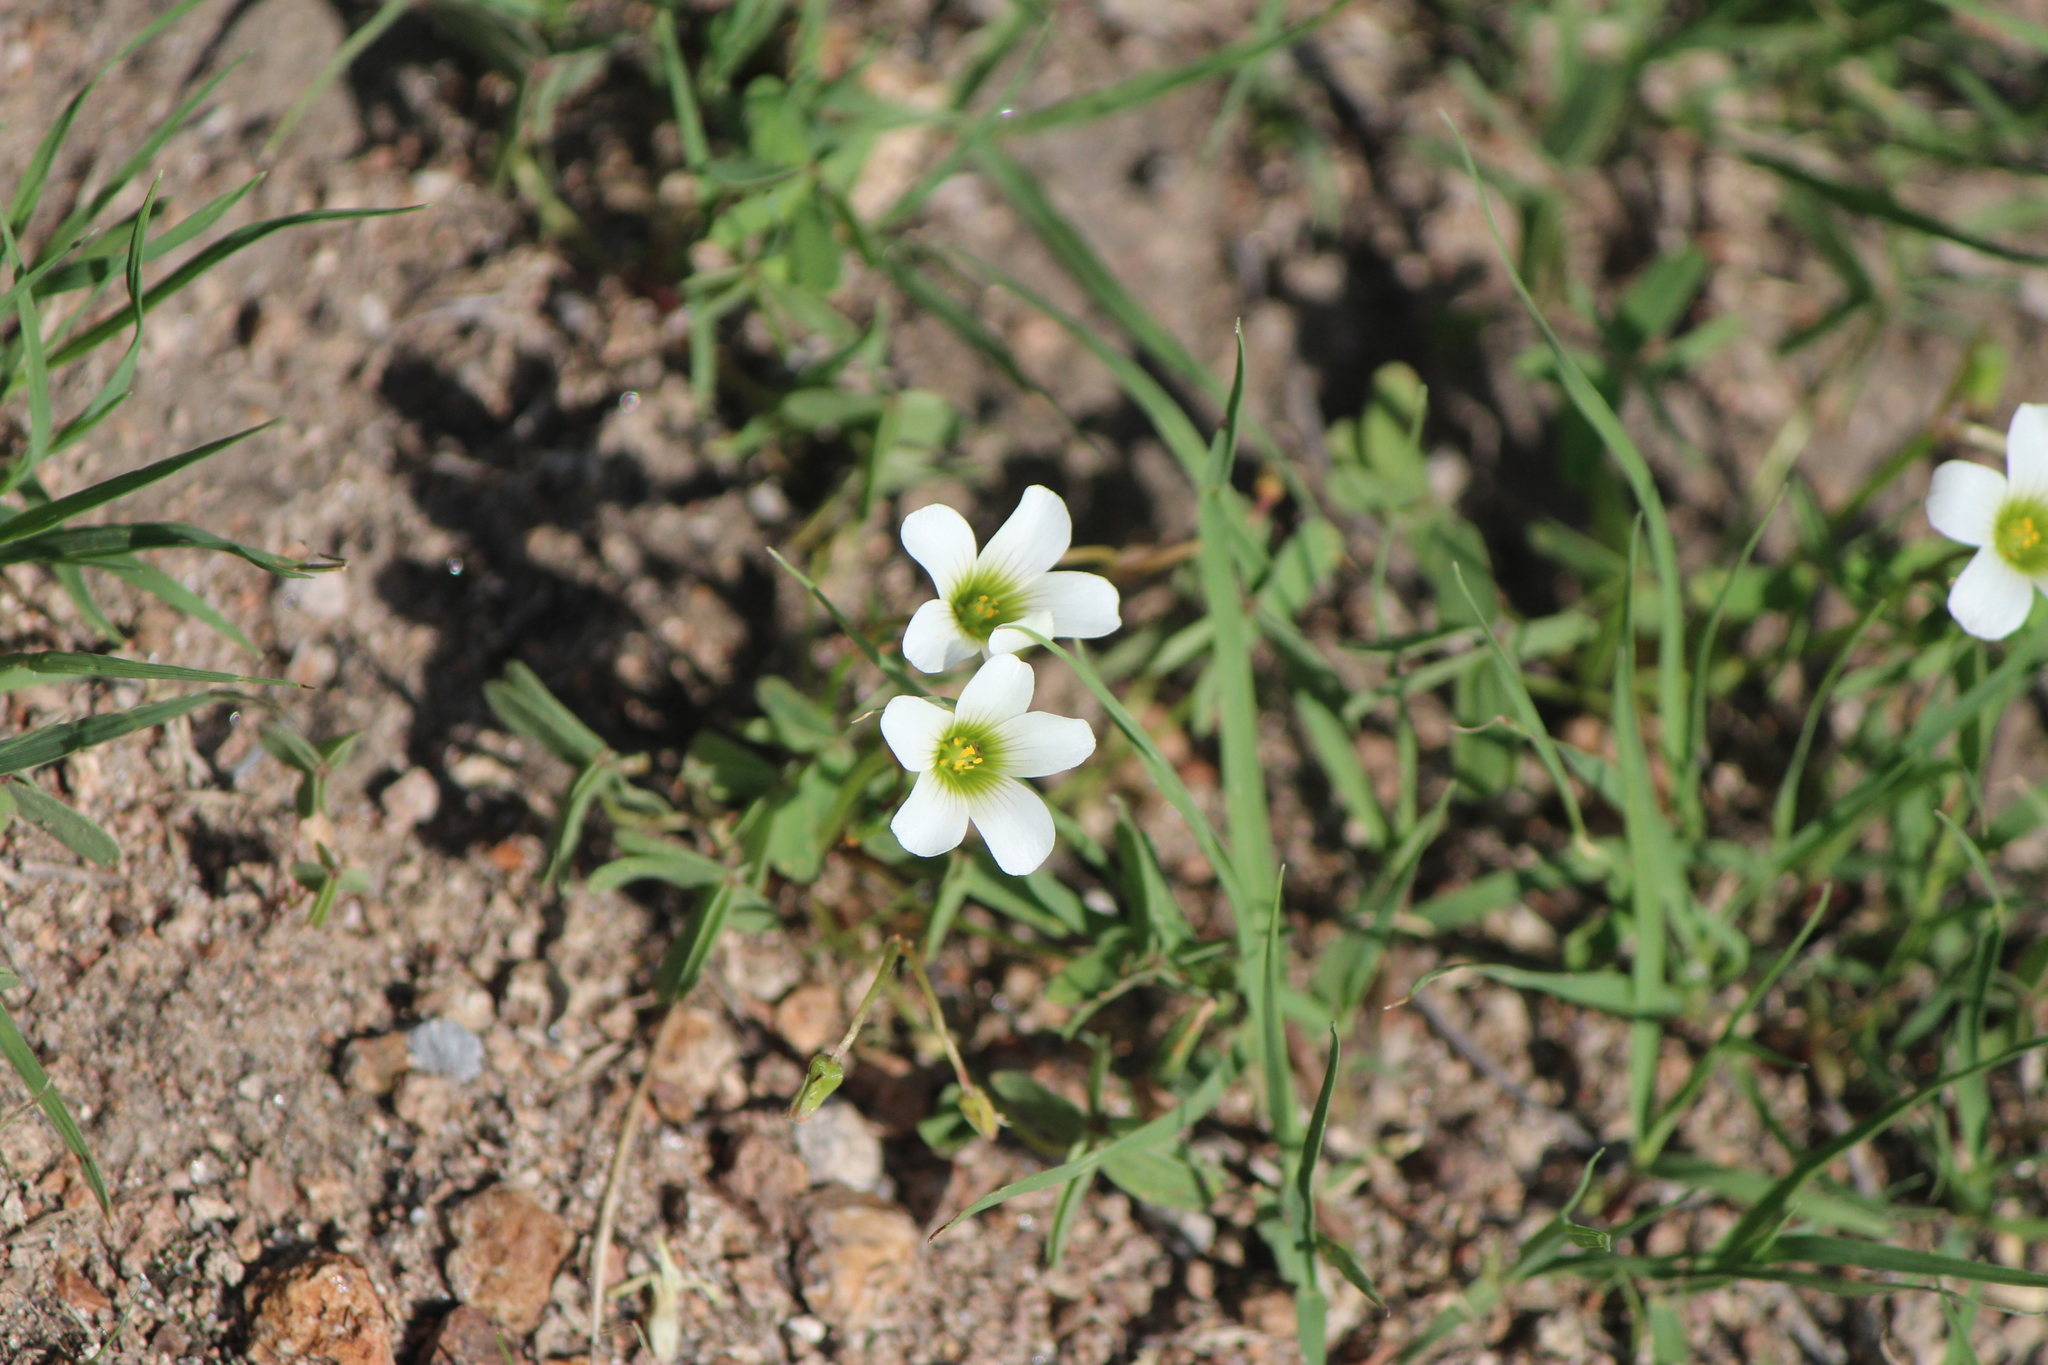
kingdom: Plantae
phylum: Tracheophyta
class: Magnoliopsida
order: Oxalidales
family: Oxalidaceae
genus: Oxalis
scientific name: Oxalis alpina
